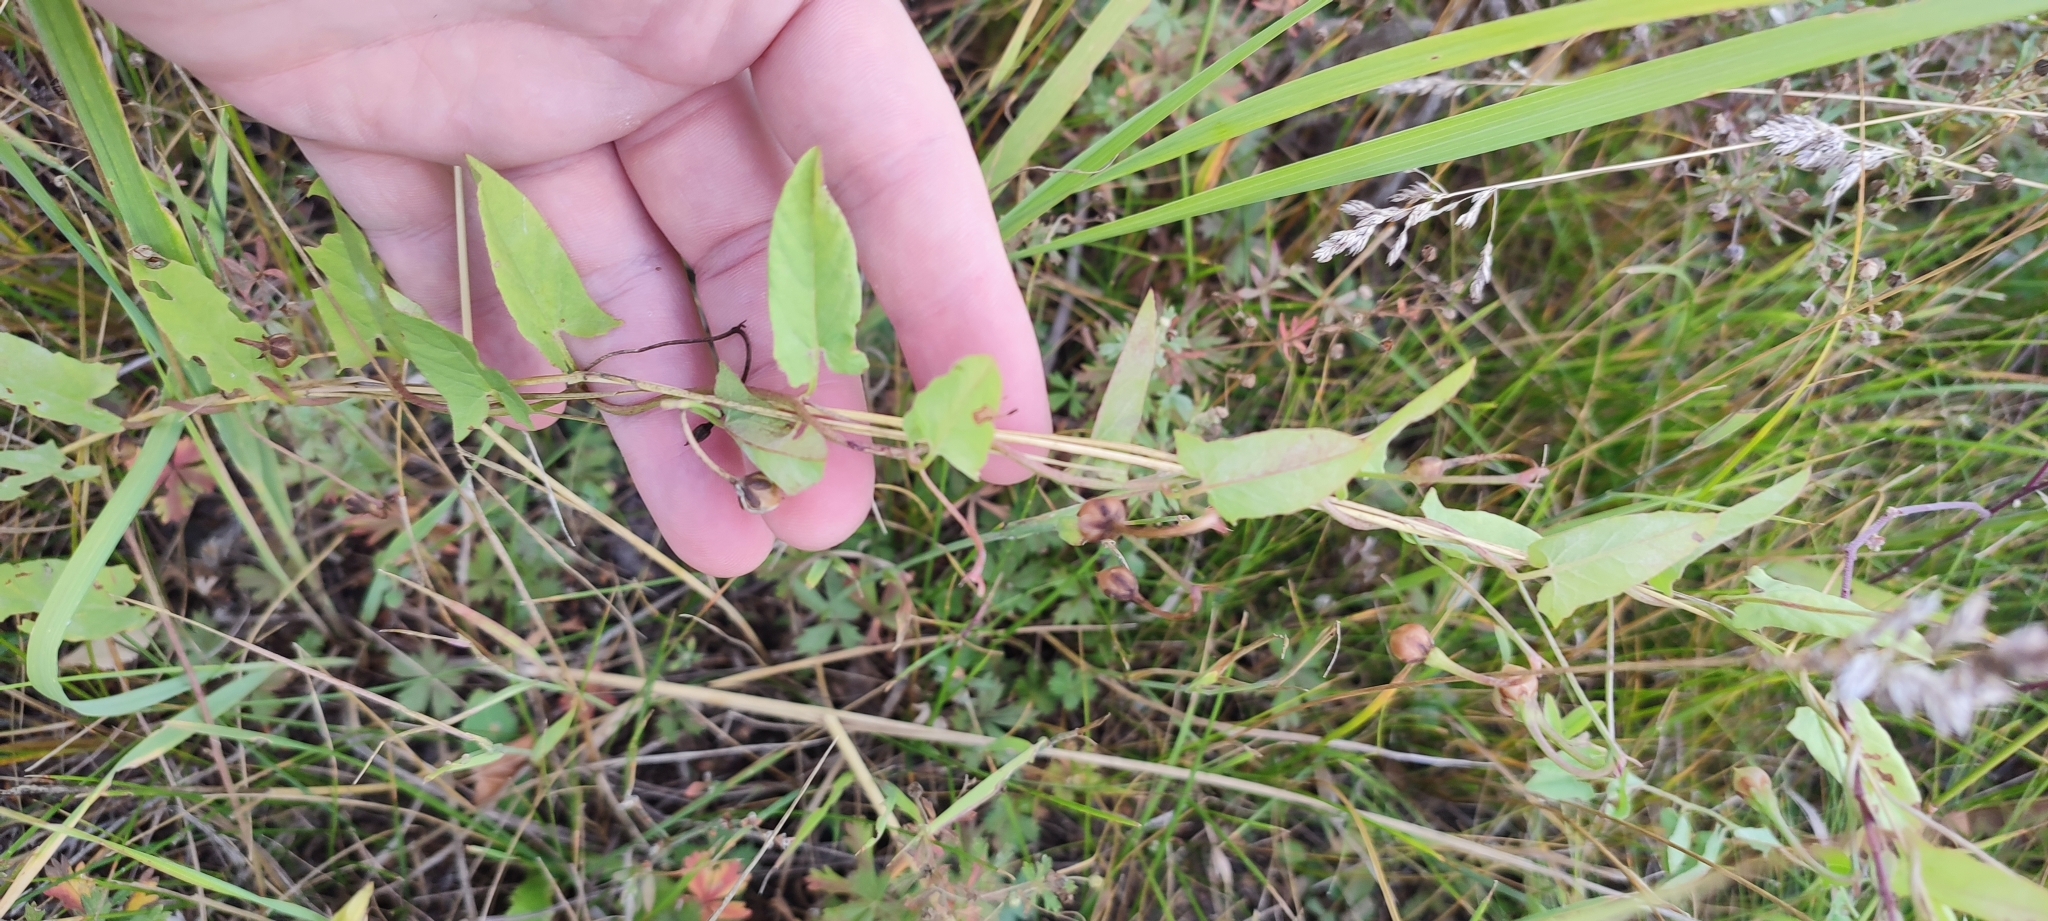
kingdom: Plantae
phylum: Tracheophyta
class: Magnoliopsida
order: Solanales
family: Convolvulaceae
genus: Convolvulus
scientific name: Convolvulus arvensis
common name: Field bindweed
